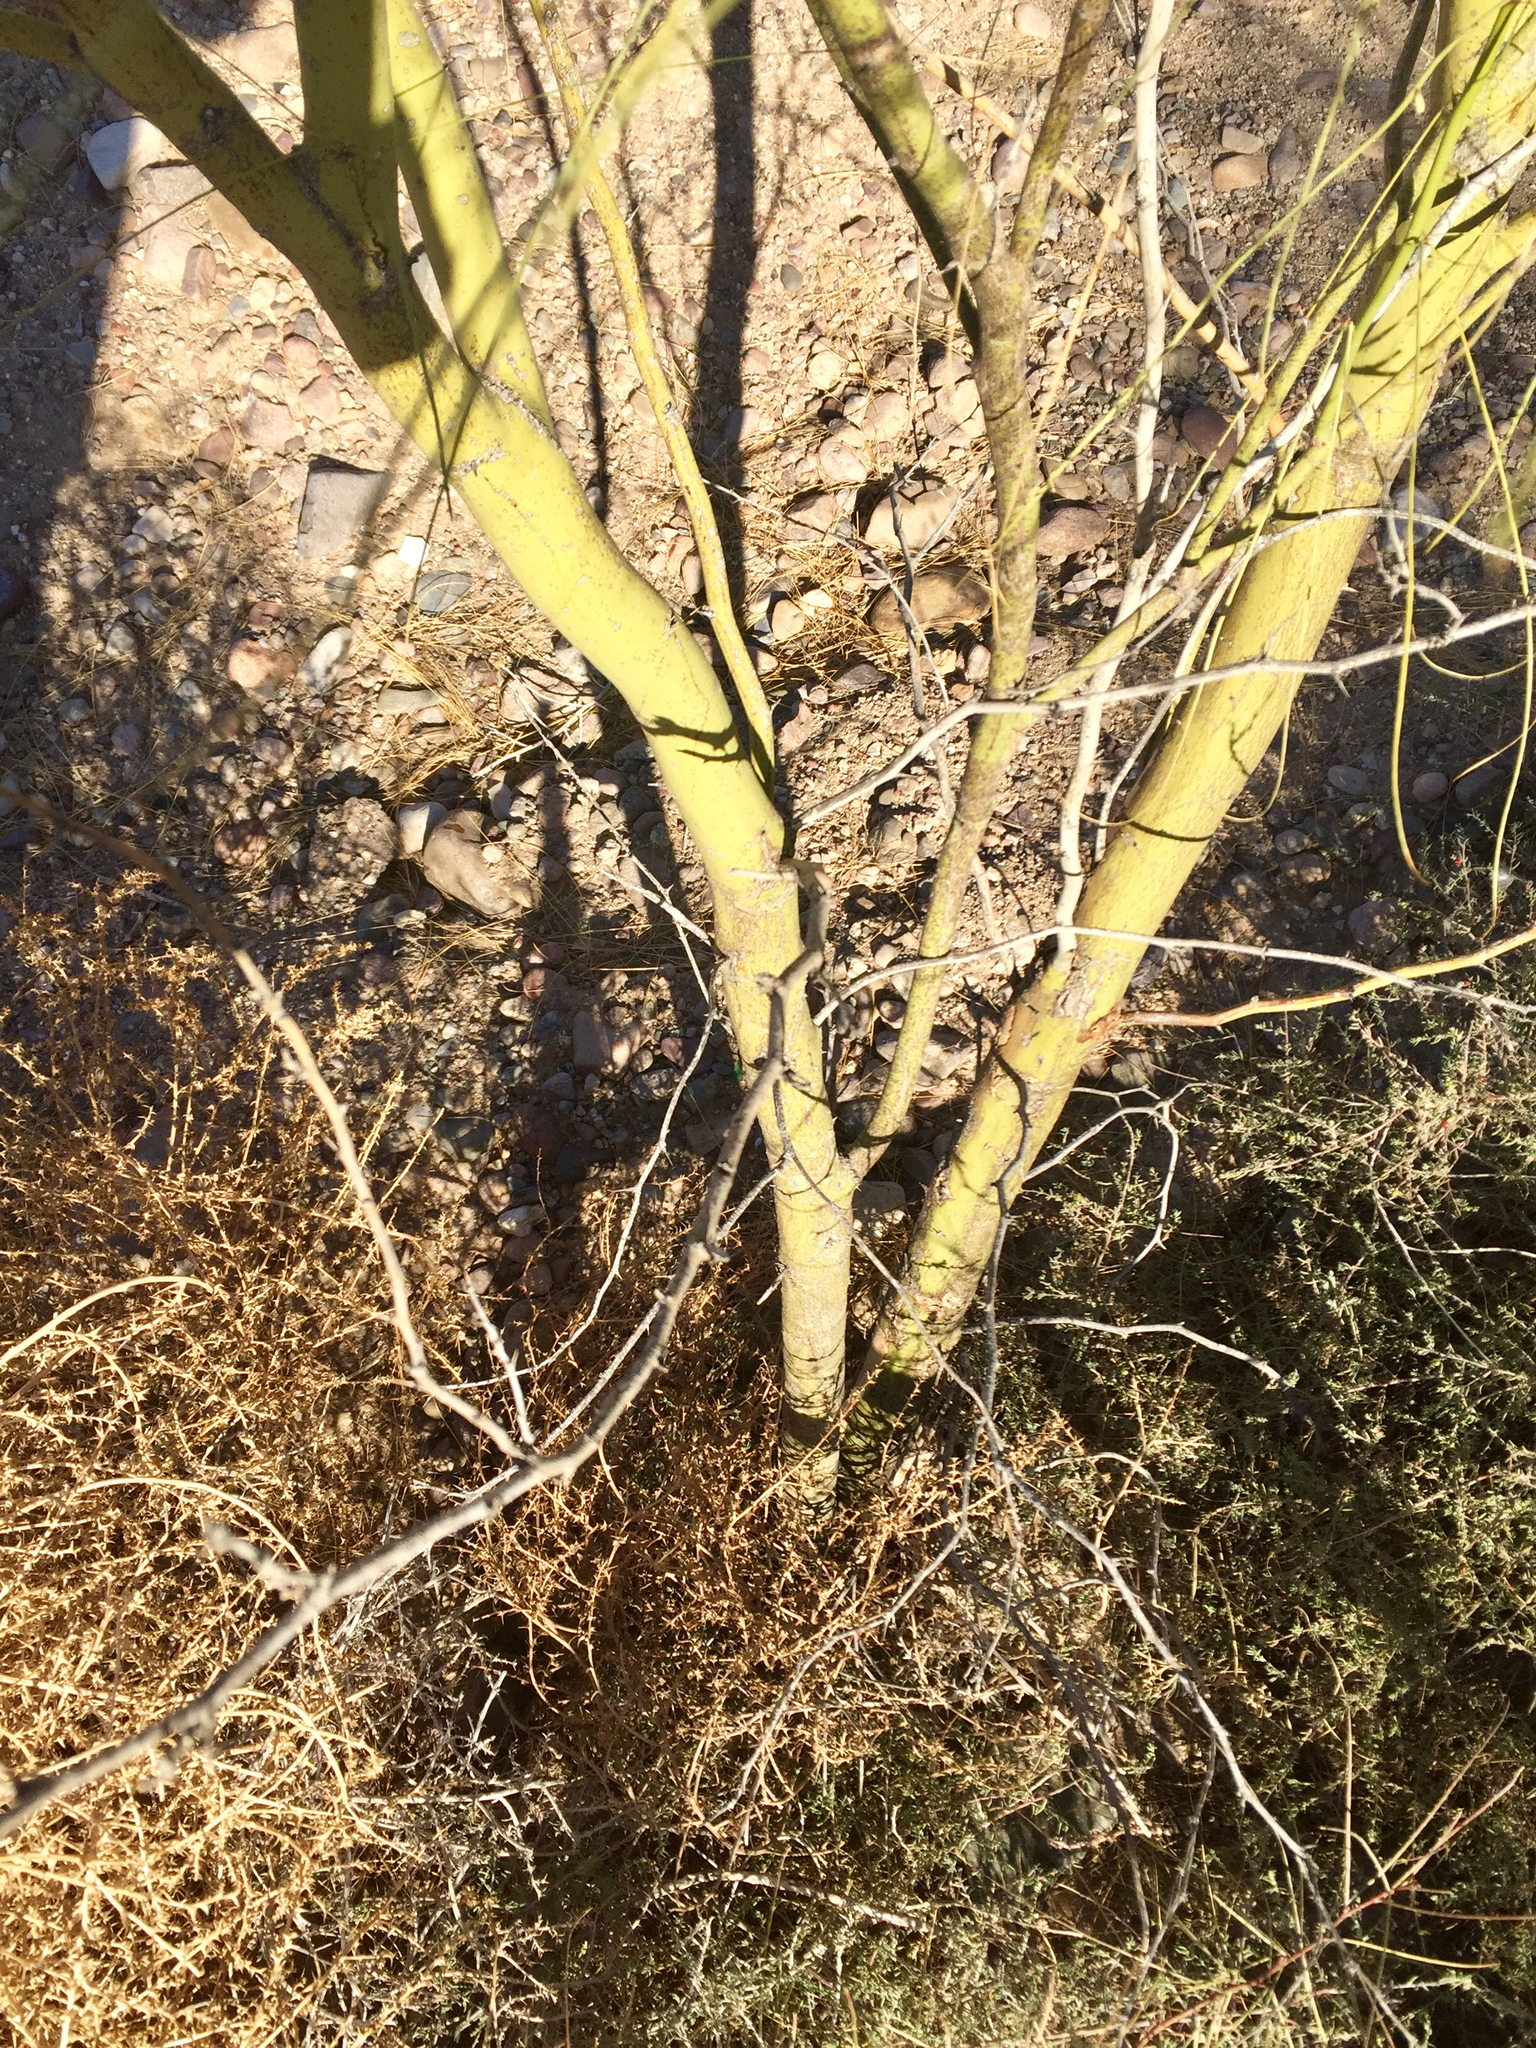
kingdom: Plantae
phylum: Tracheophyta
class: Magnoliopsida
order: Fabales
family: Fabaceae
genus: Parkinsonia
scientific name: Parkinsonia aculeata
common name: Jerusalem thorn
